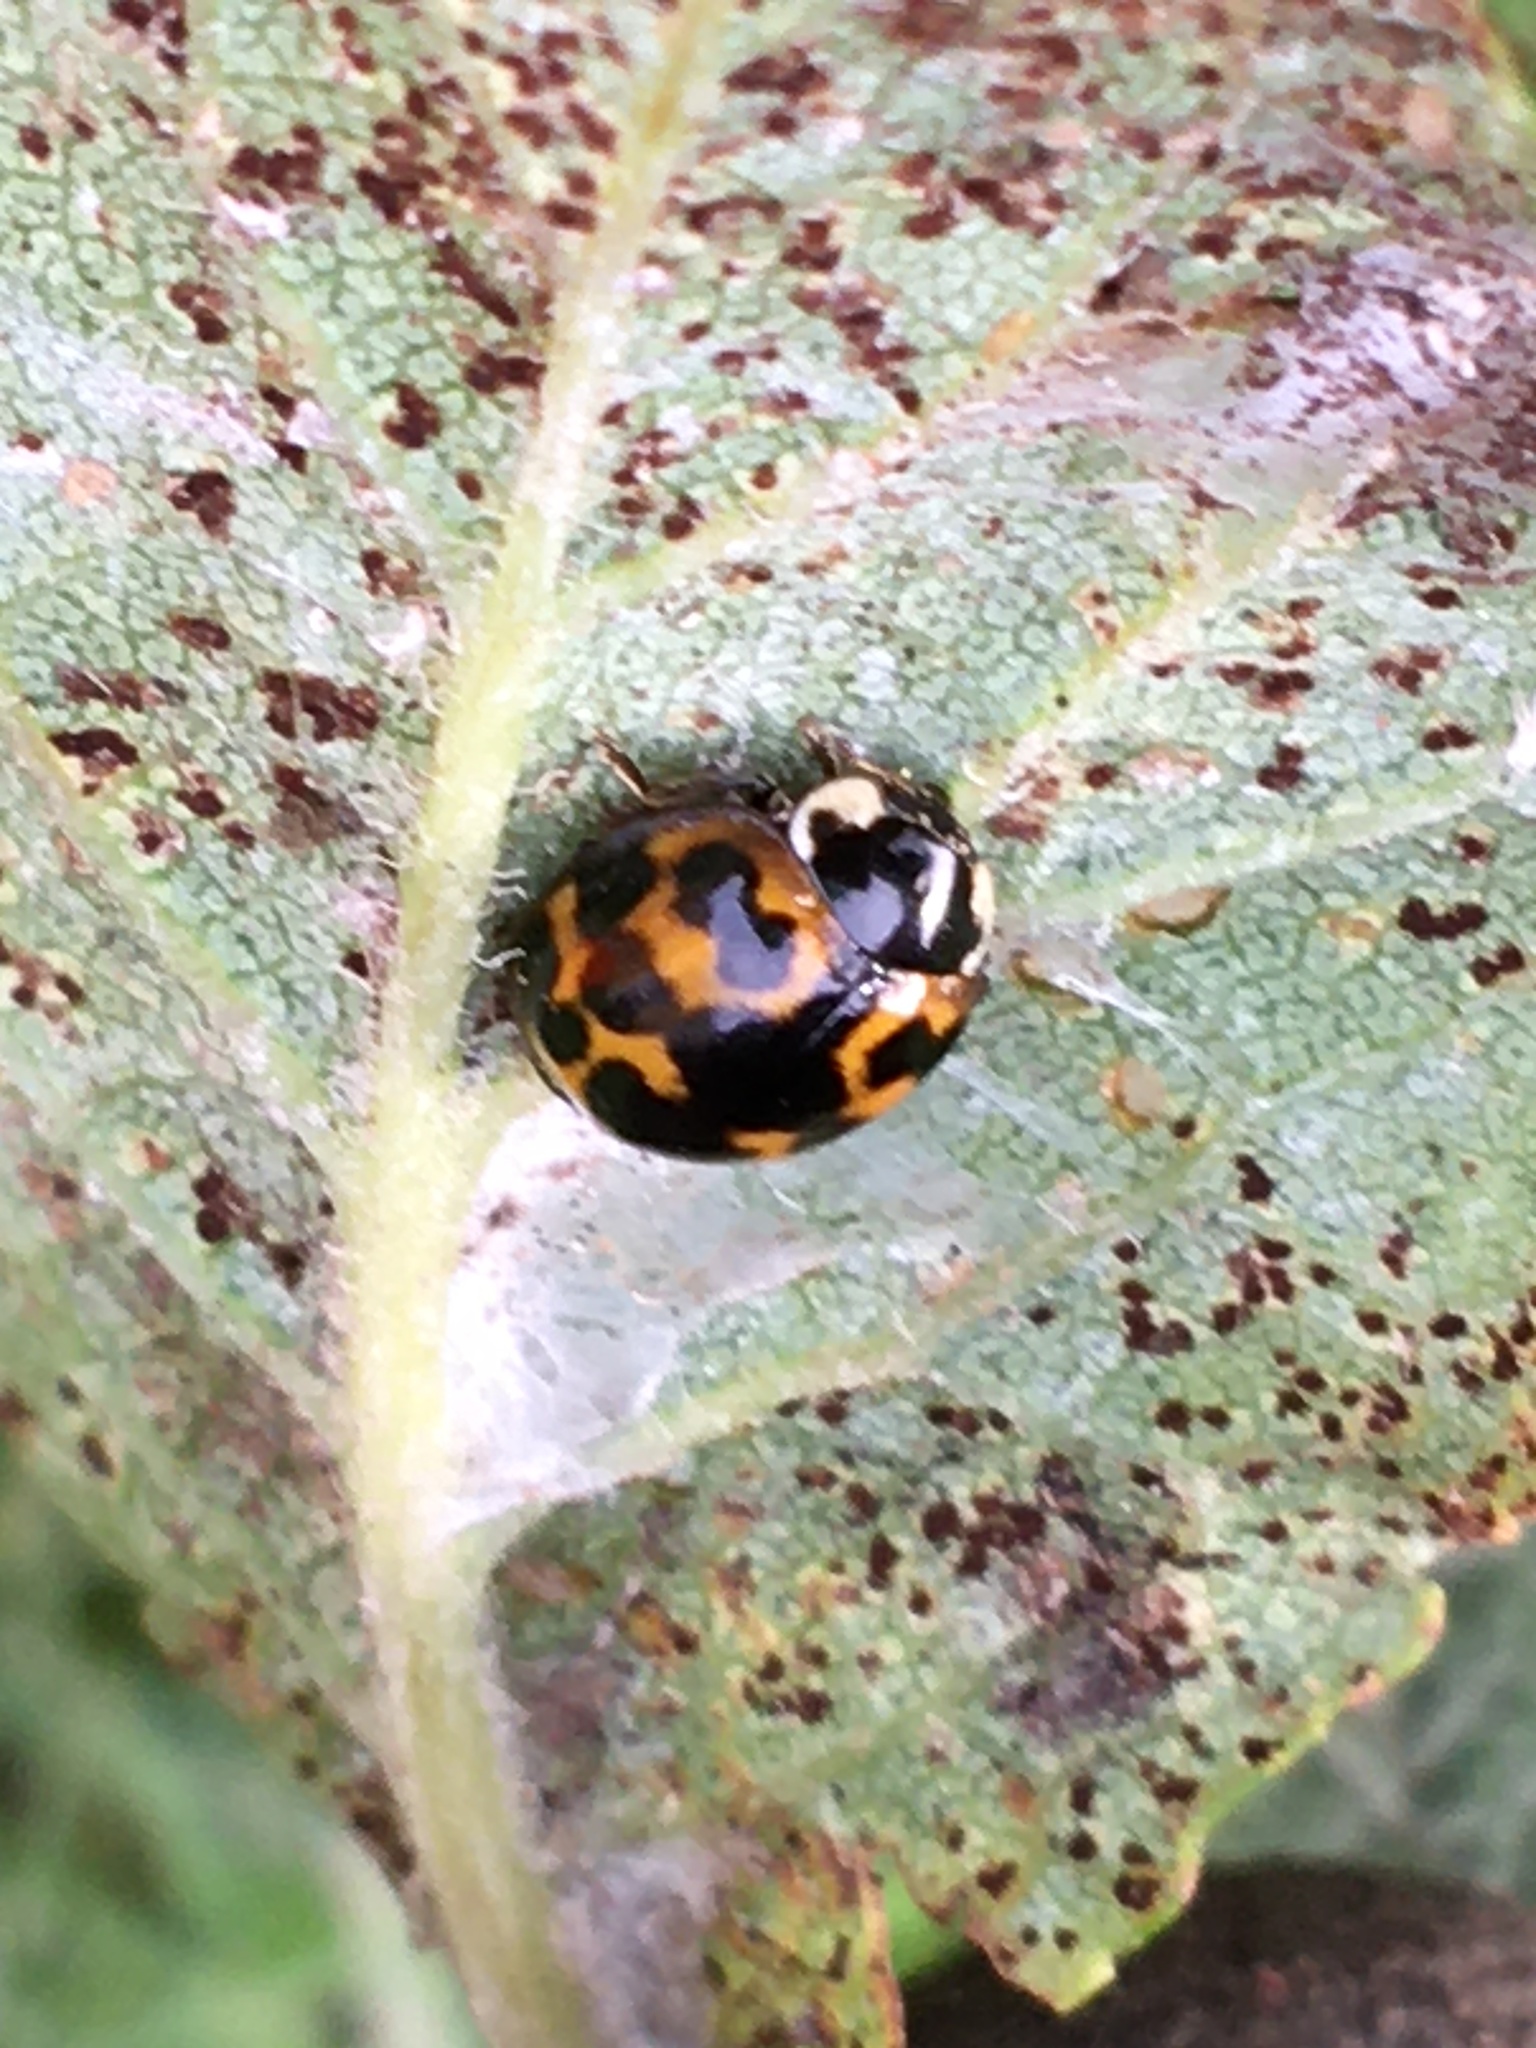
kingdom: Animalia
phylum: Arthropoda
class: Insecta
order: Coleoptera
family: Coccinellidae
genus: Harmonia
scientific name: Harmonia axyridis
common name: Harlequin ladybird
